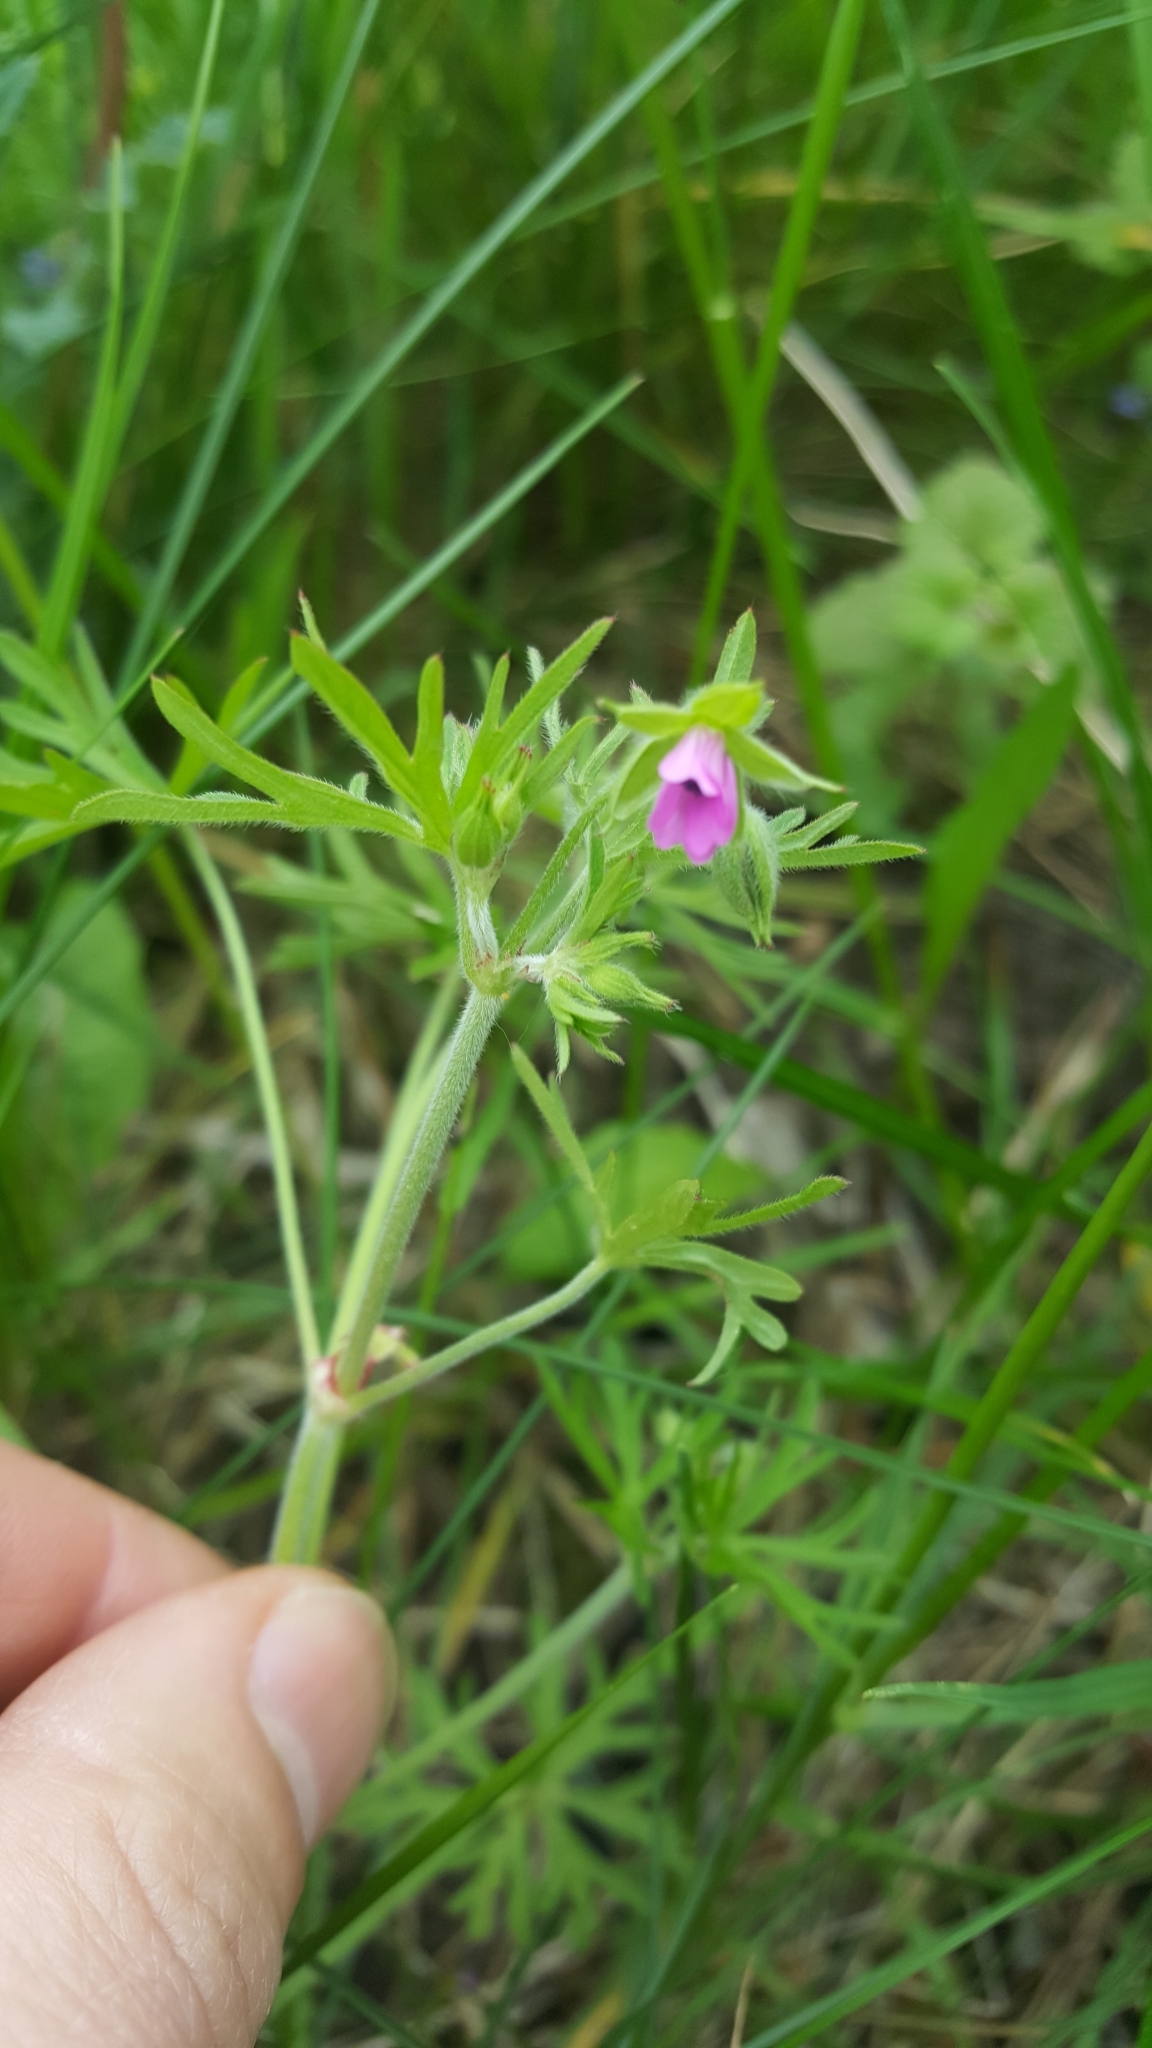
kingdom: Plantae
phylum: Tracheophyta
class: Magnoliopsida
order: Geraniales
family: Geraniaceae
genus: Geranium
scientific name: Geranium dissectum
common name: Cut-leaved crane's-bill
